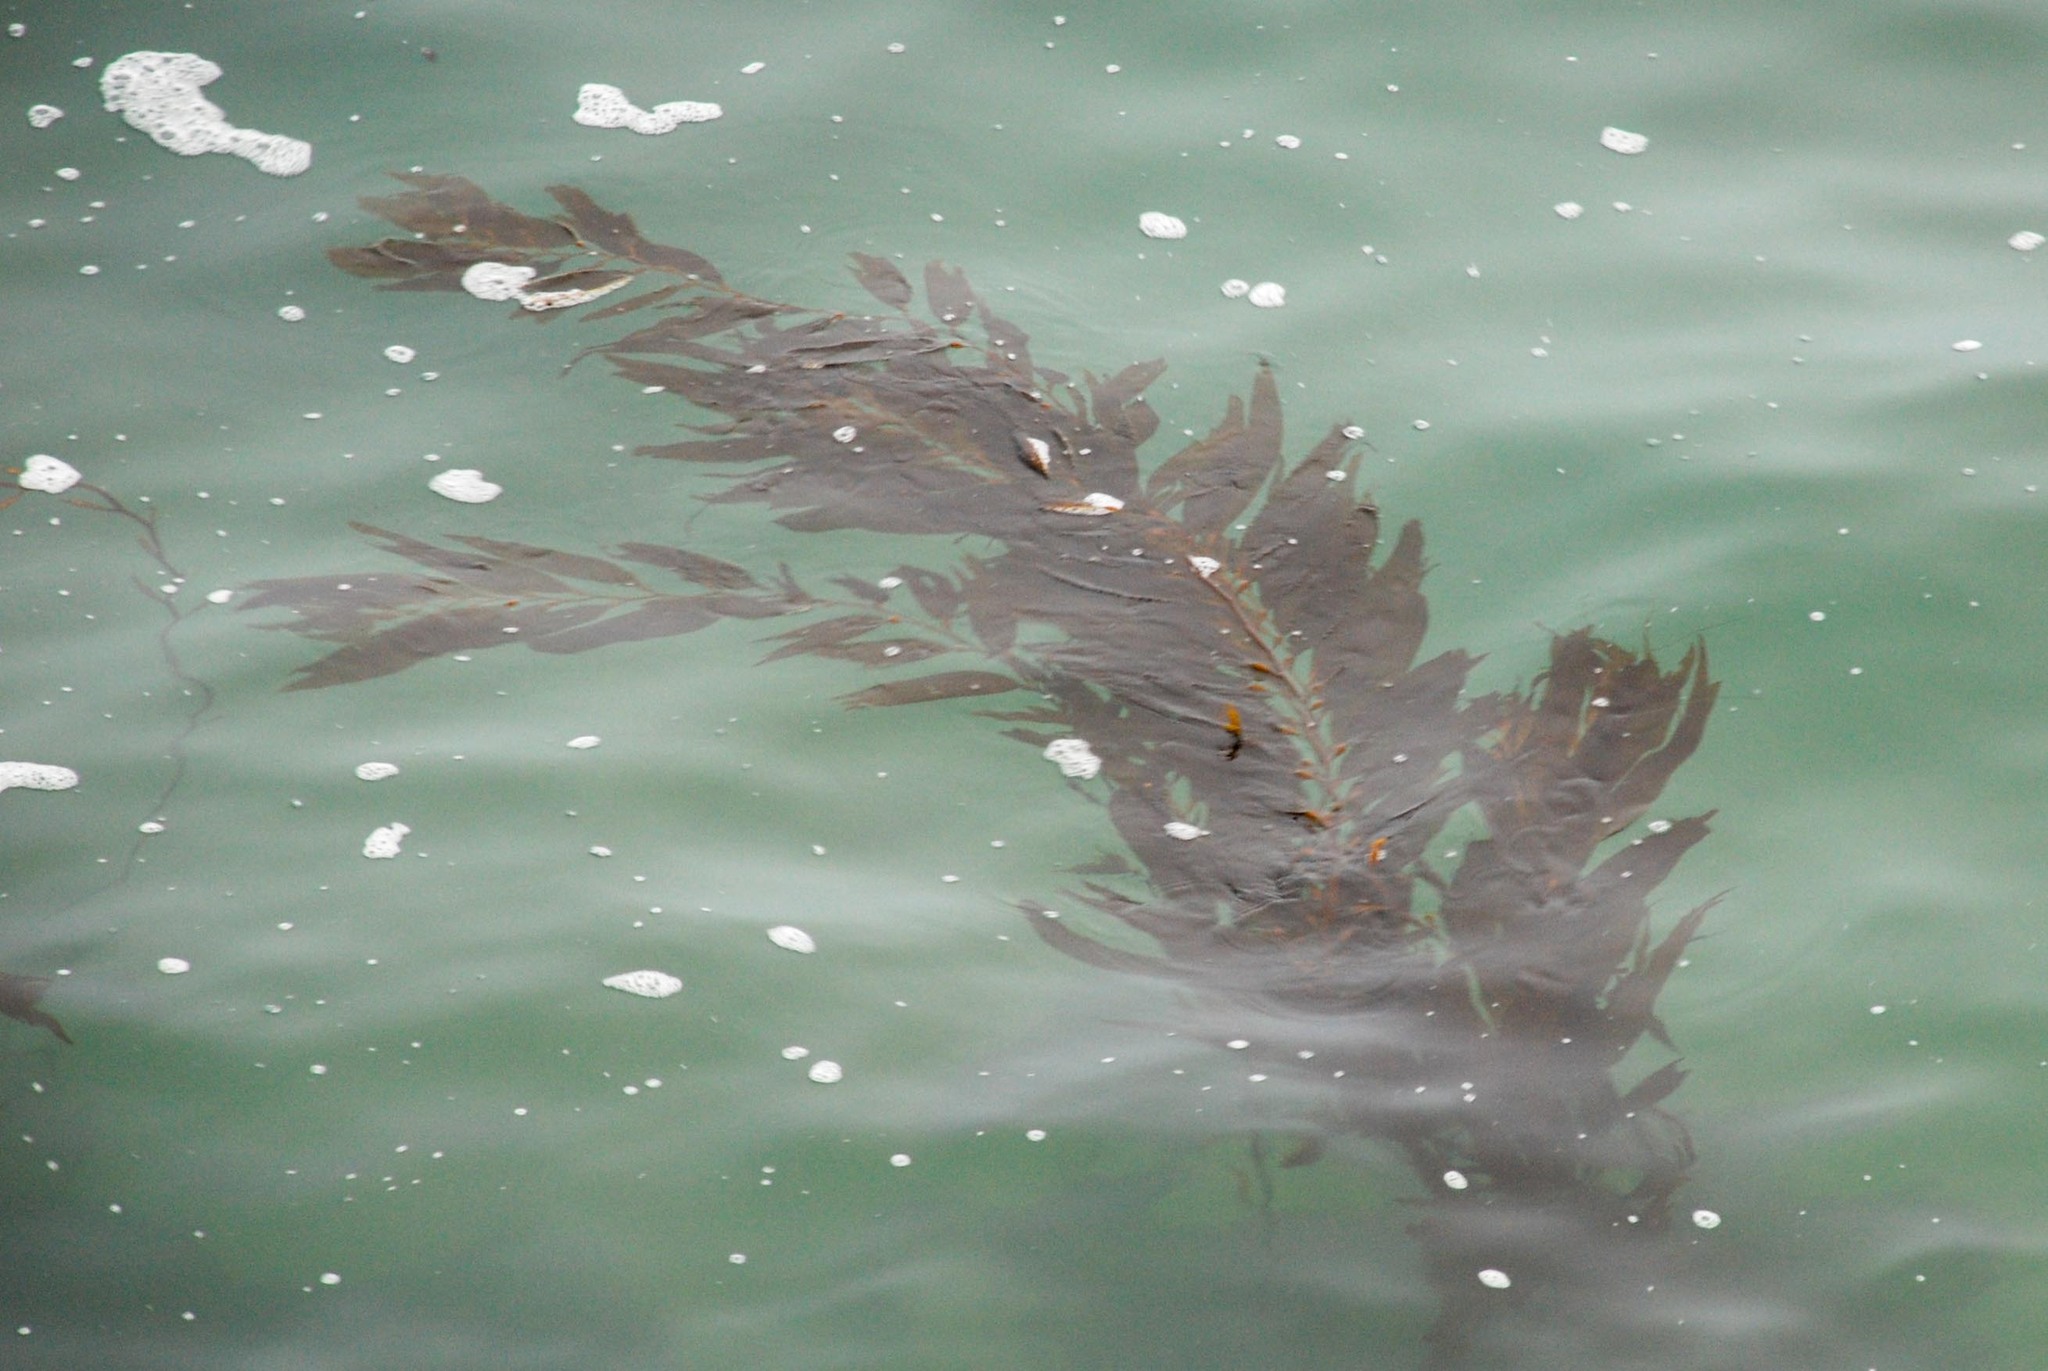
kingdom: Chromista
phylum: Ochrophyta
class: Phaeophyceae
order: Laminariales
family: Laminariaceae
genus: Macrocystis
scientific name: Macrocystis pyrifera
